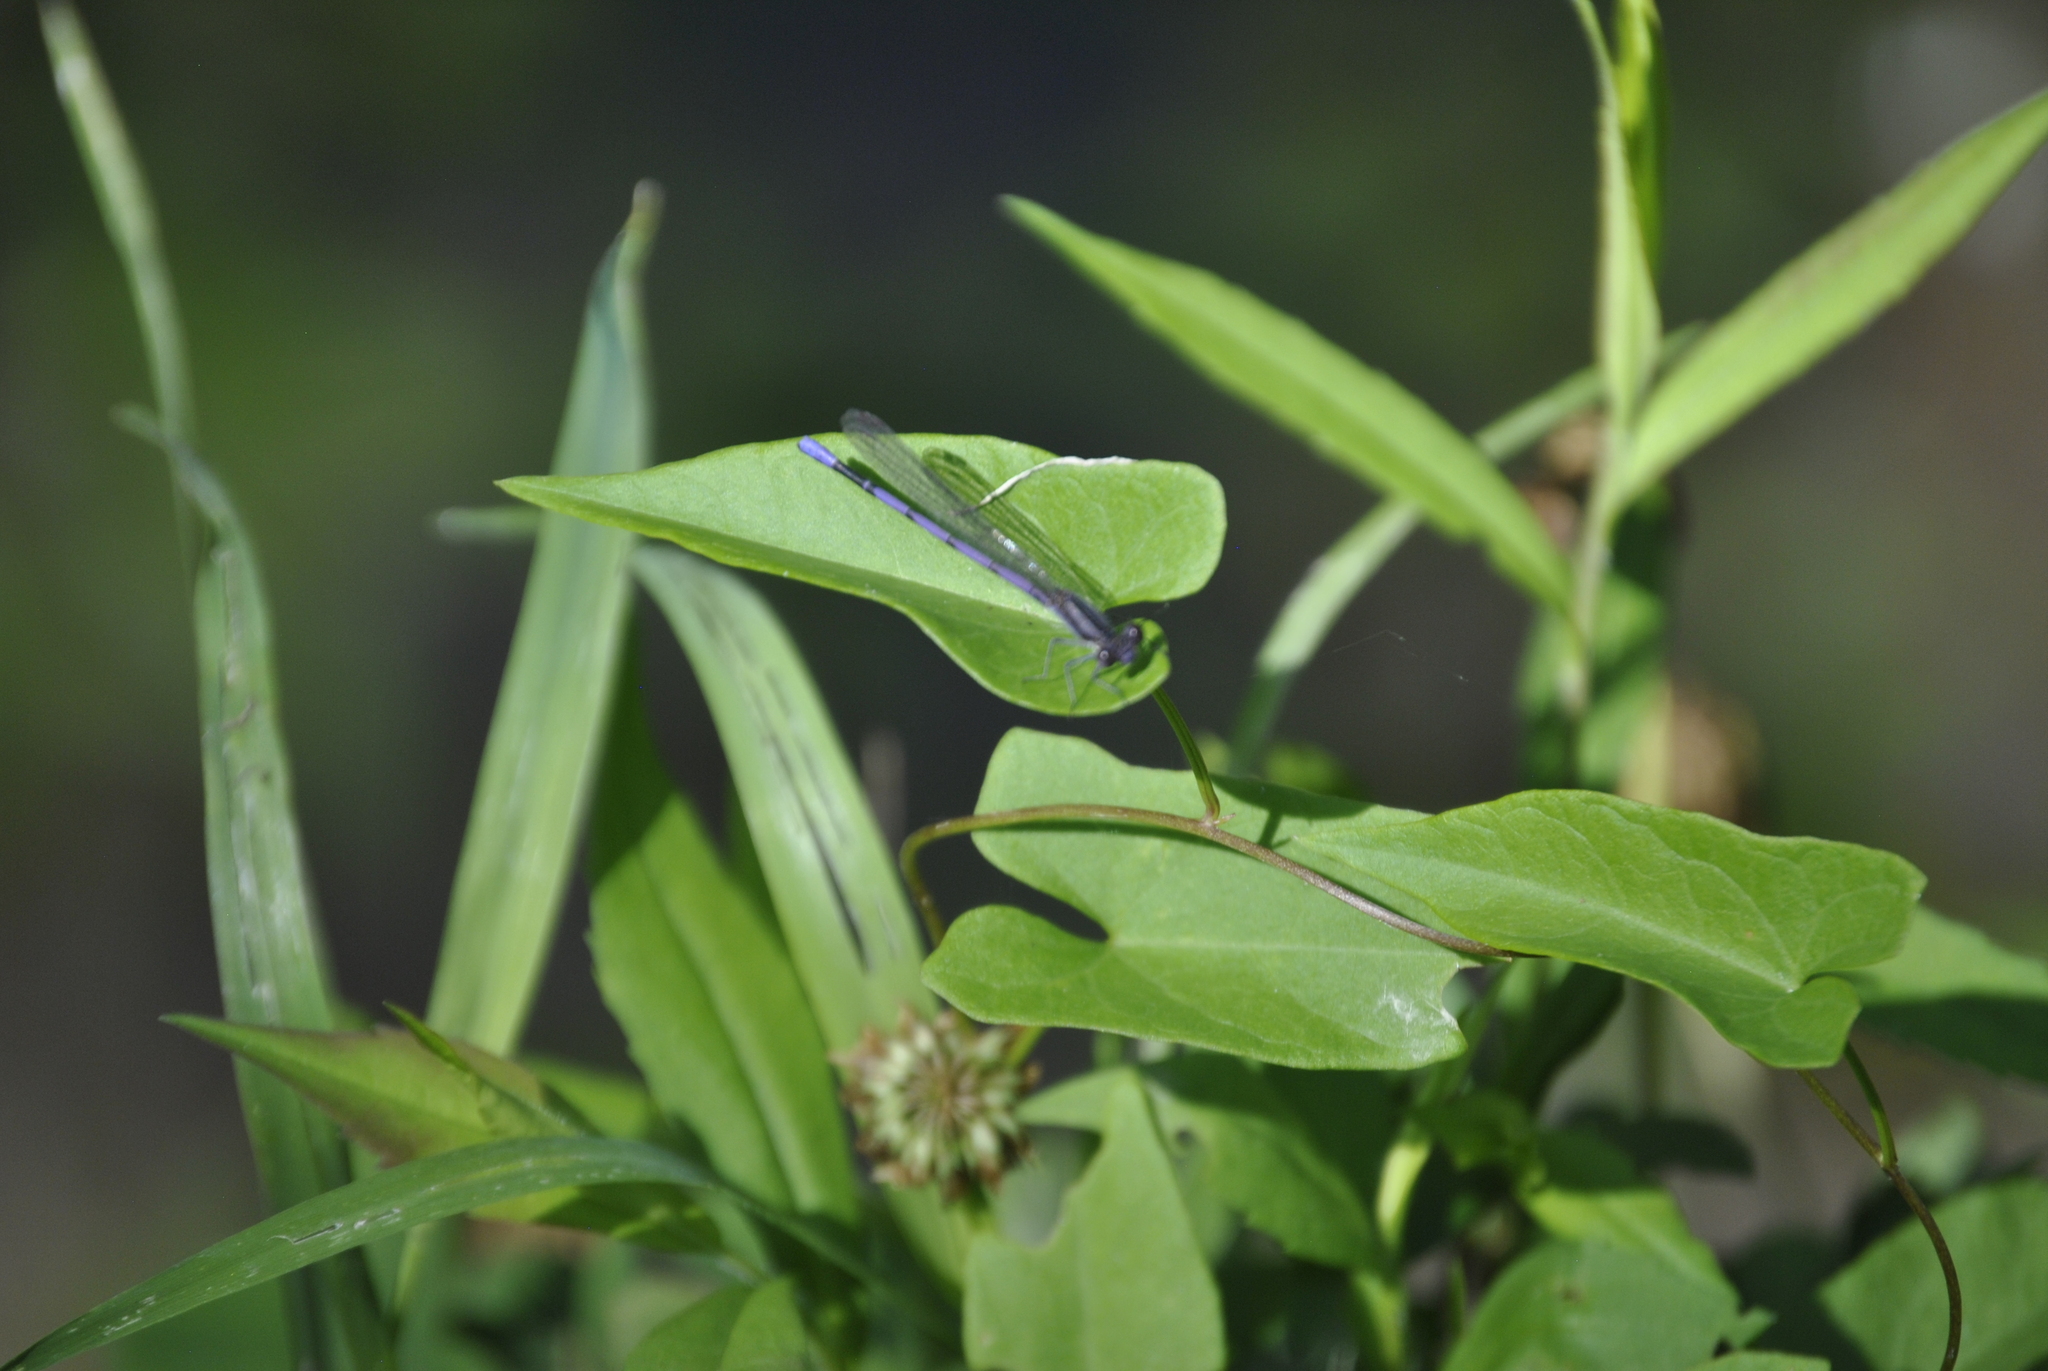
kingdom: Animalia
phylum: Arthropoda
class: Insecta
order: Odonata
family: Coenagrionidae
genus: Argia
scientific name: Argia fumipennis
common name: Variable dancer
